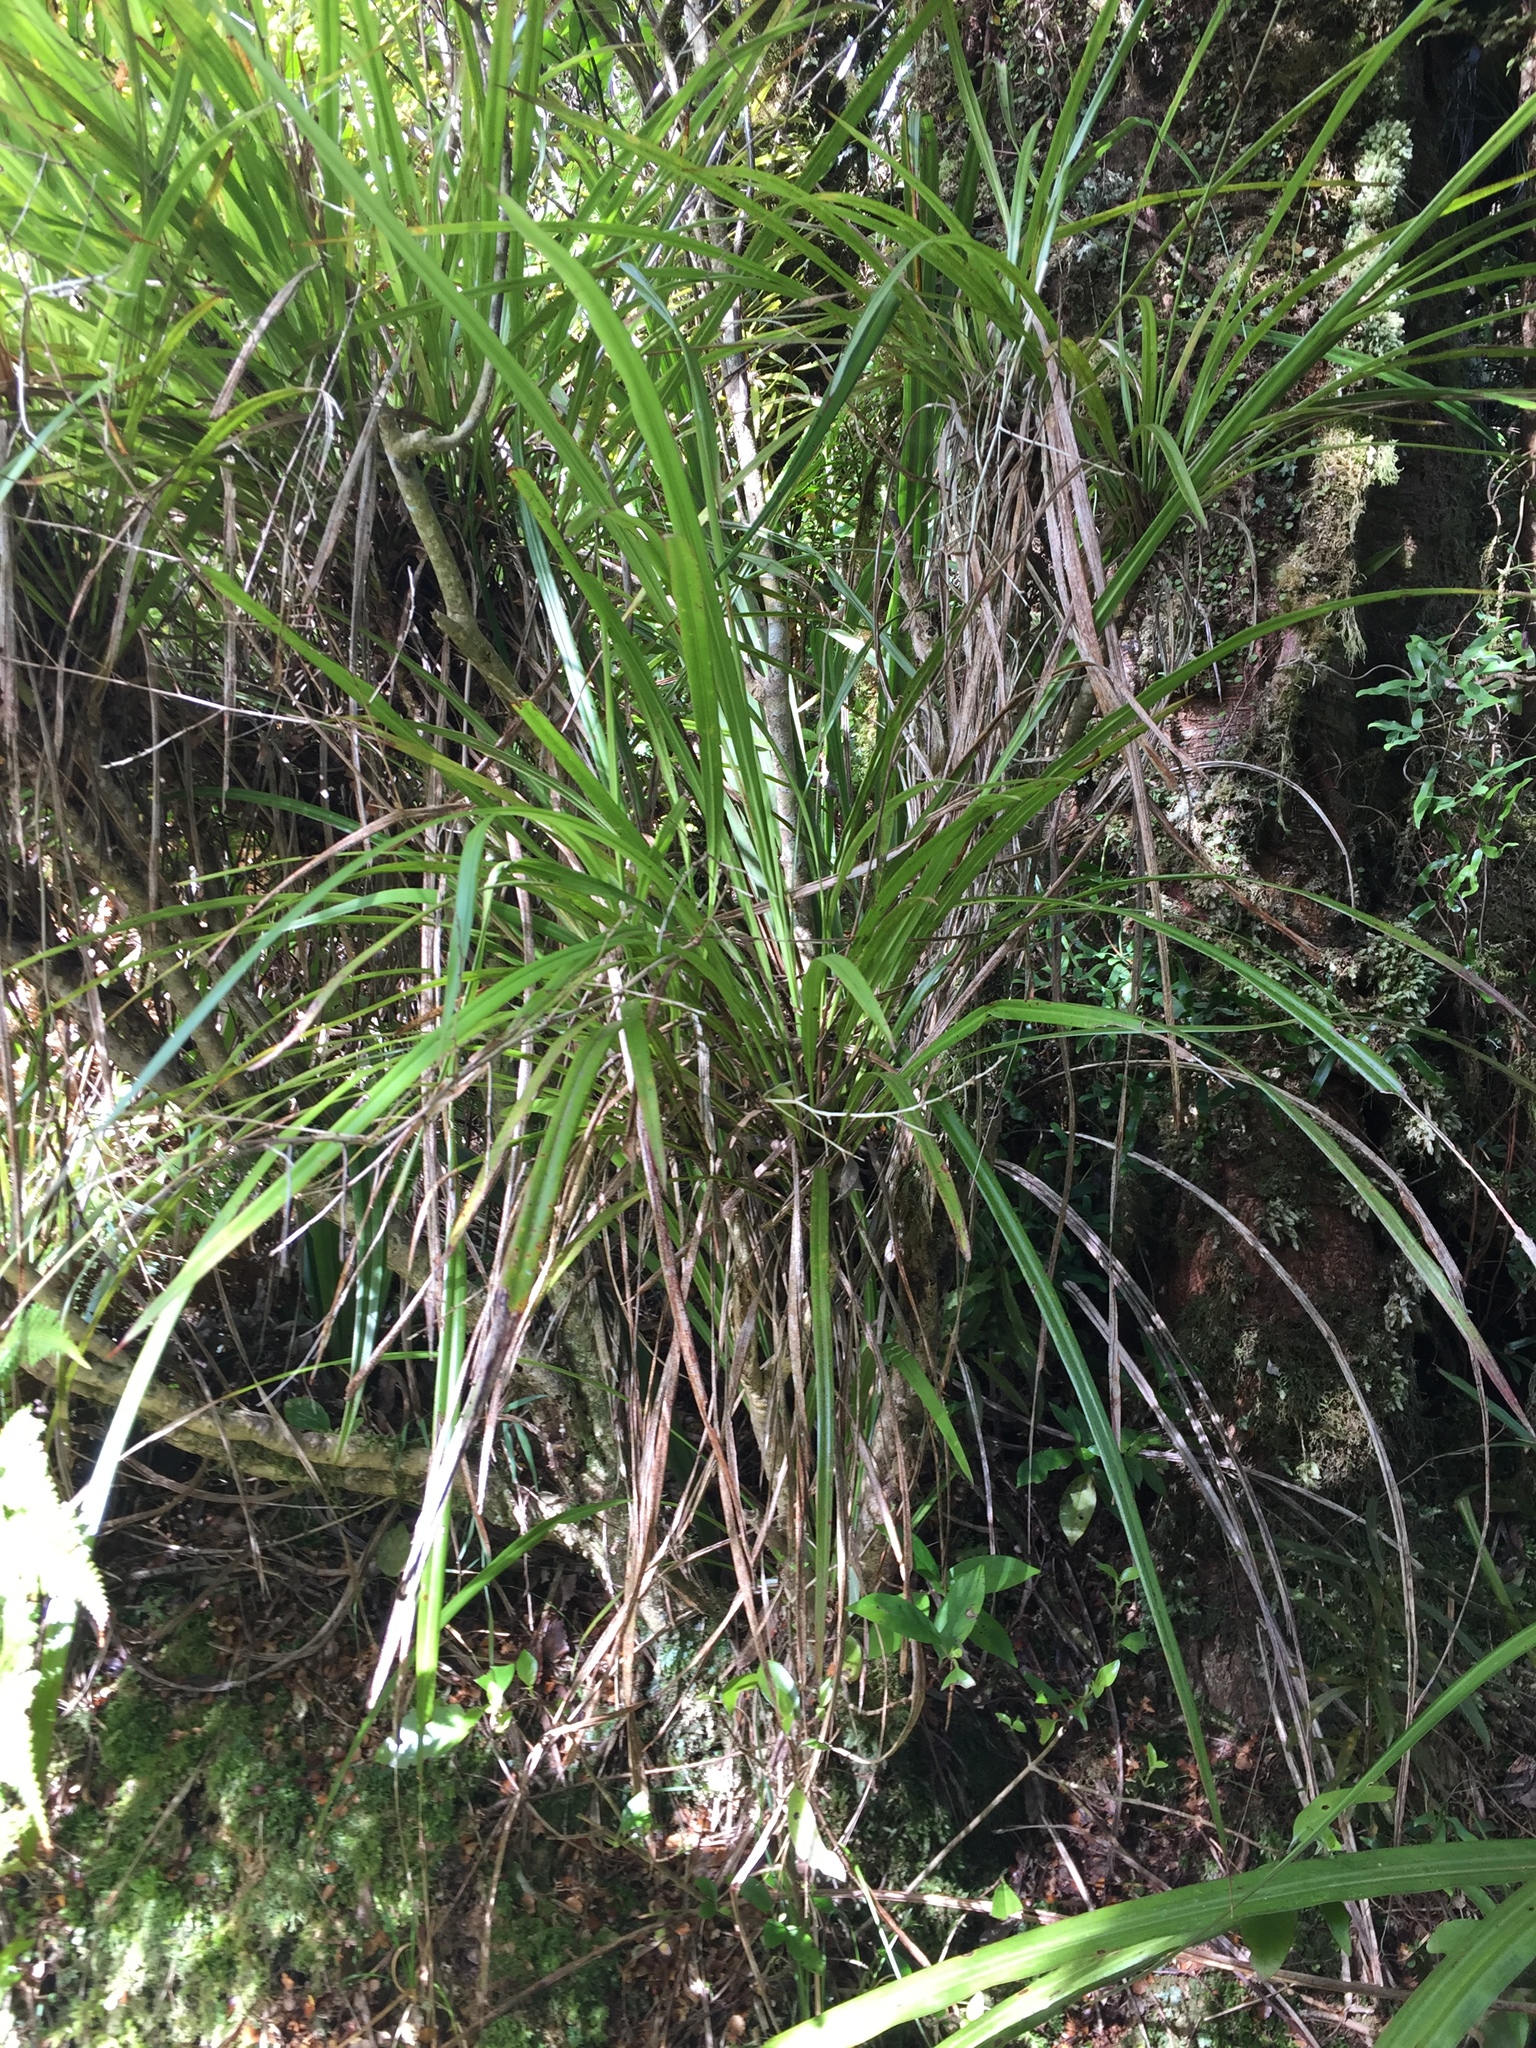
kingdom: Plantae
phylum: Tracheophyta
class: Liliopsida
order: Asparagales
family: Asparagaceae
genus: Cordyline
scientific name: Cordyline pumilio
